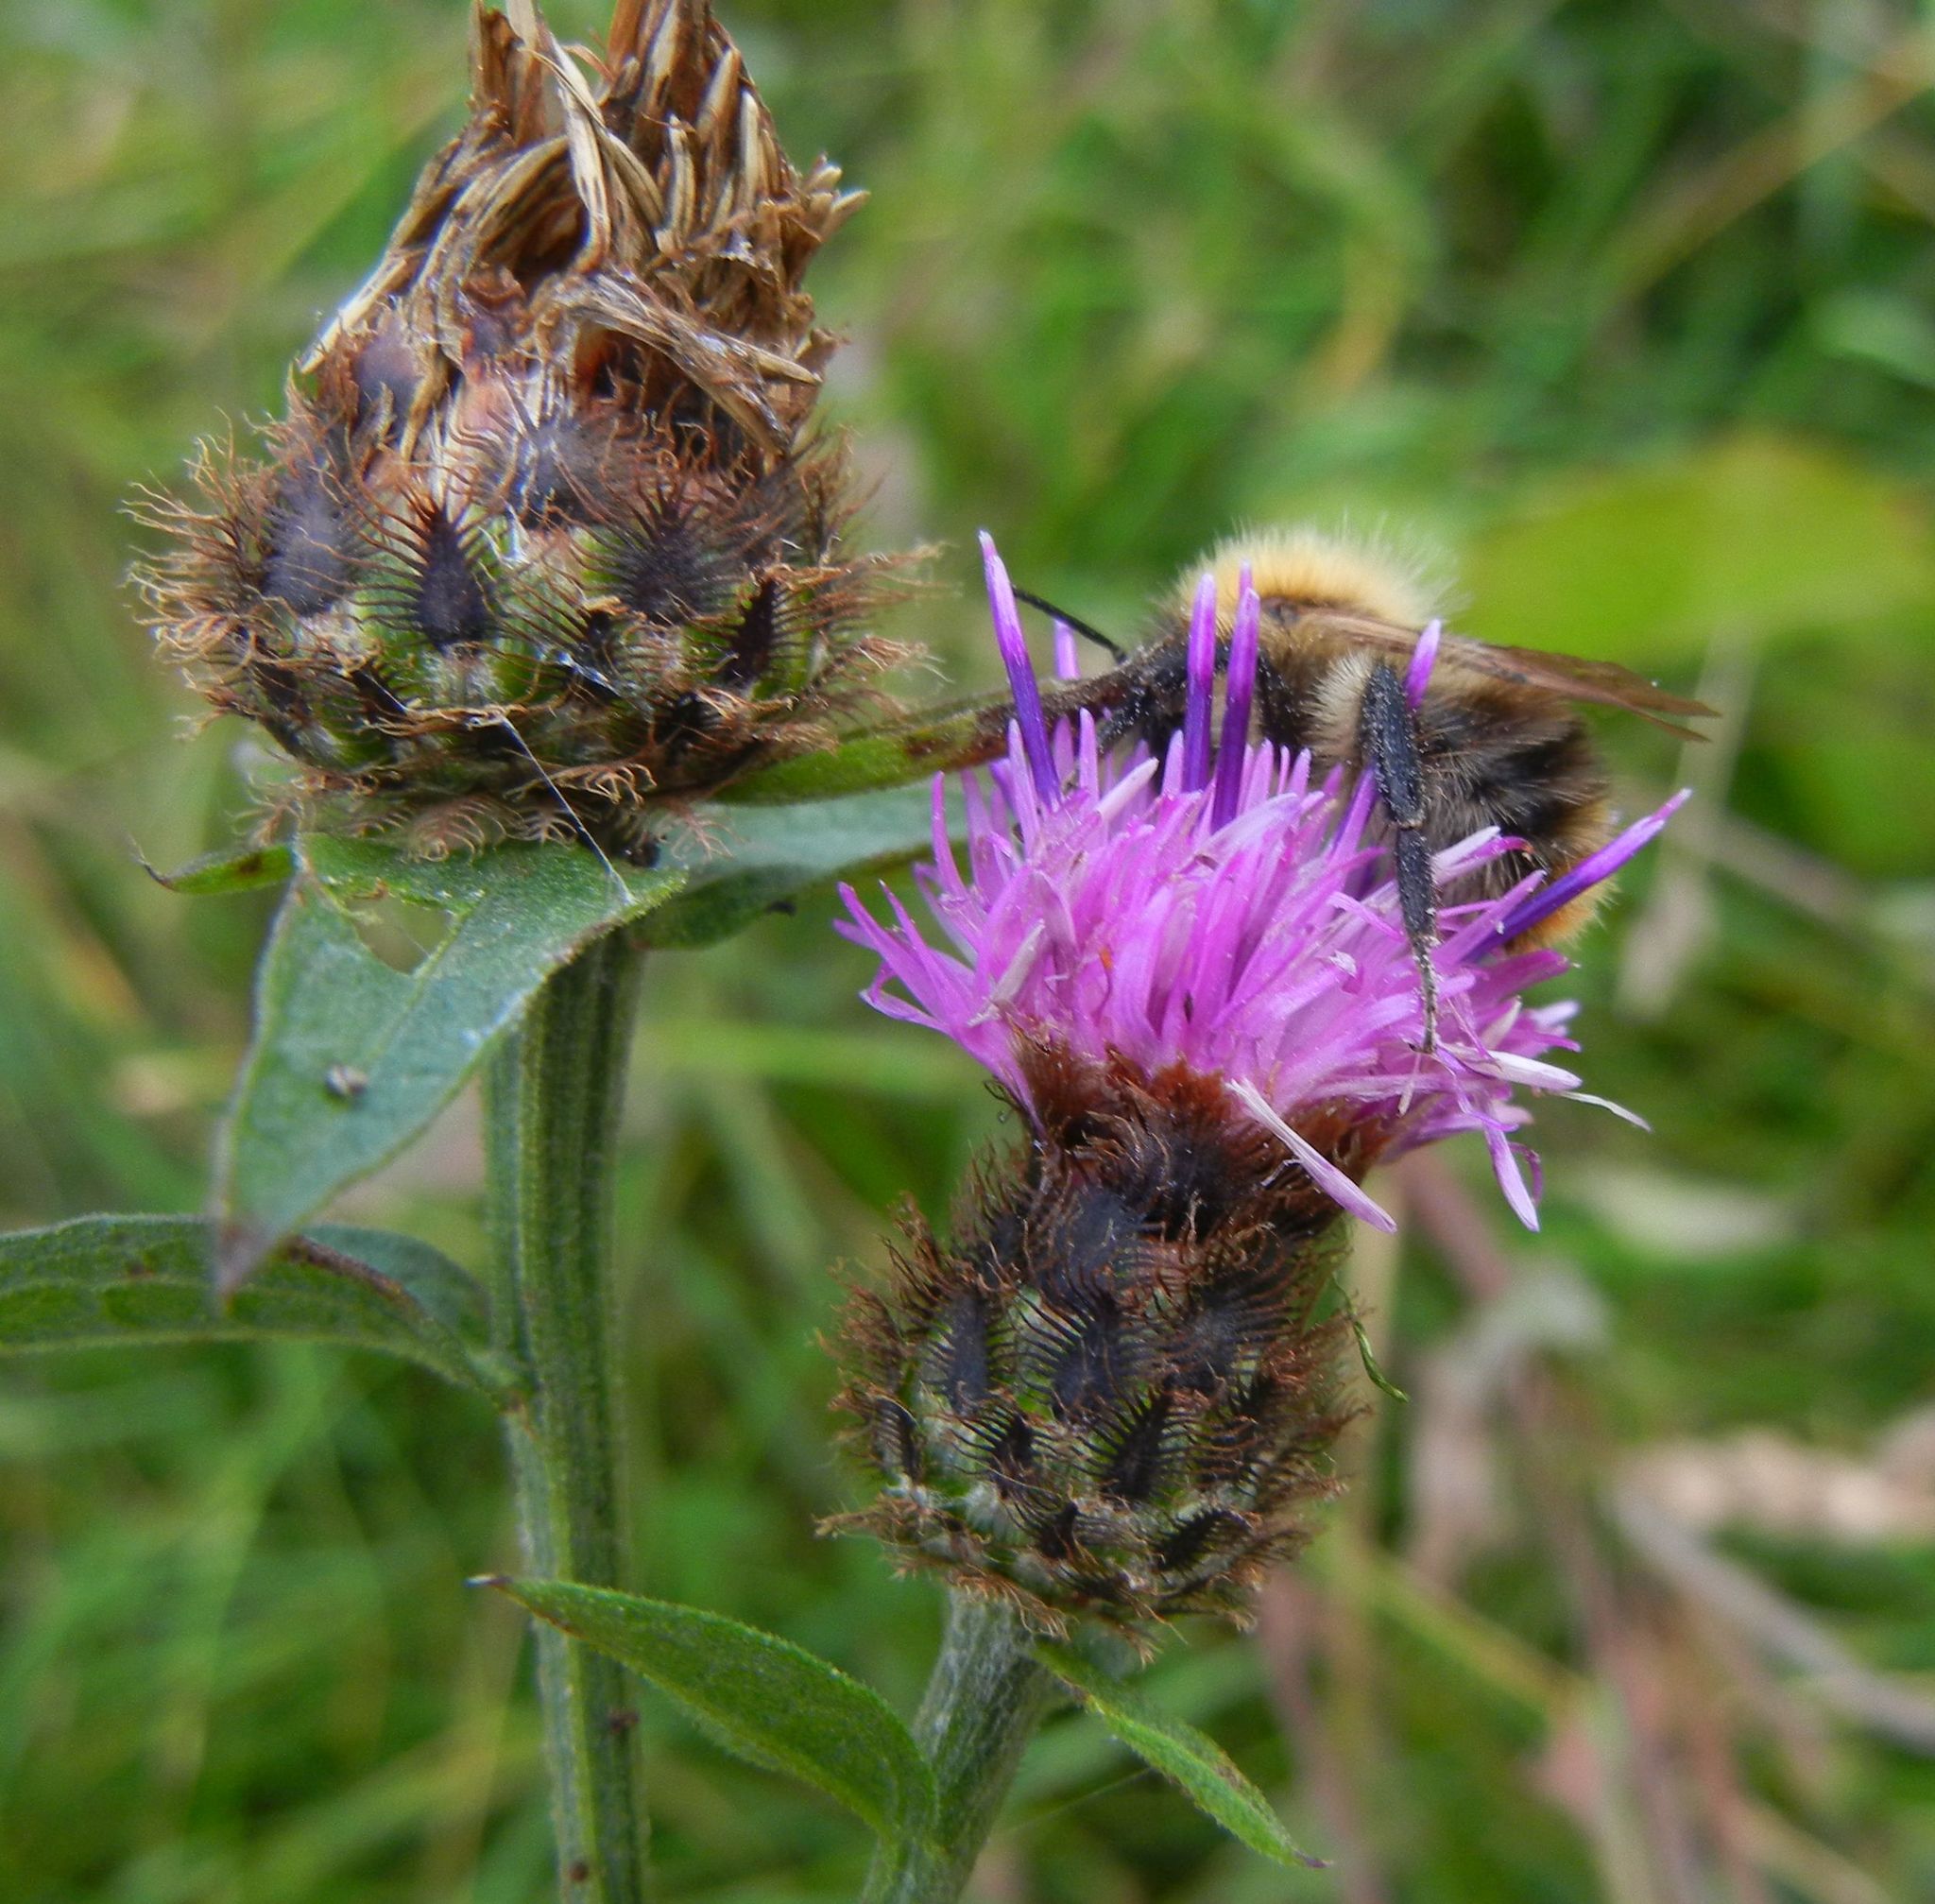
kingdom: Plantae
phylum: Tracheophyta
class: Magnoliopsida
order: Asterales
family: Asteraceae
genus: Centaurea
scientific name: Centaurea nigra
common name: Lesser knapweed
